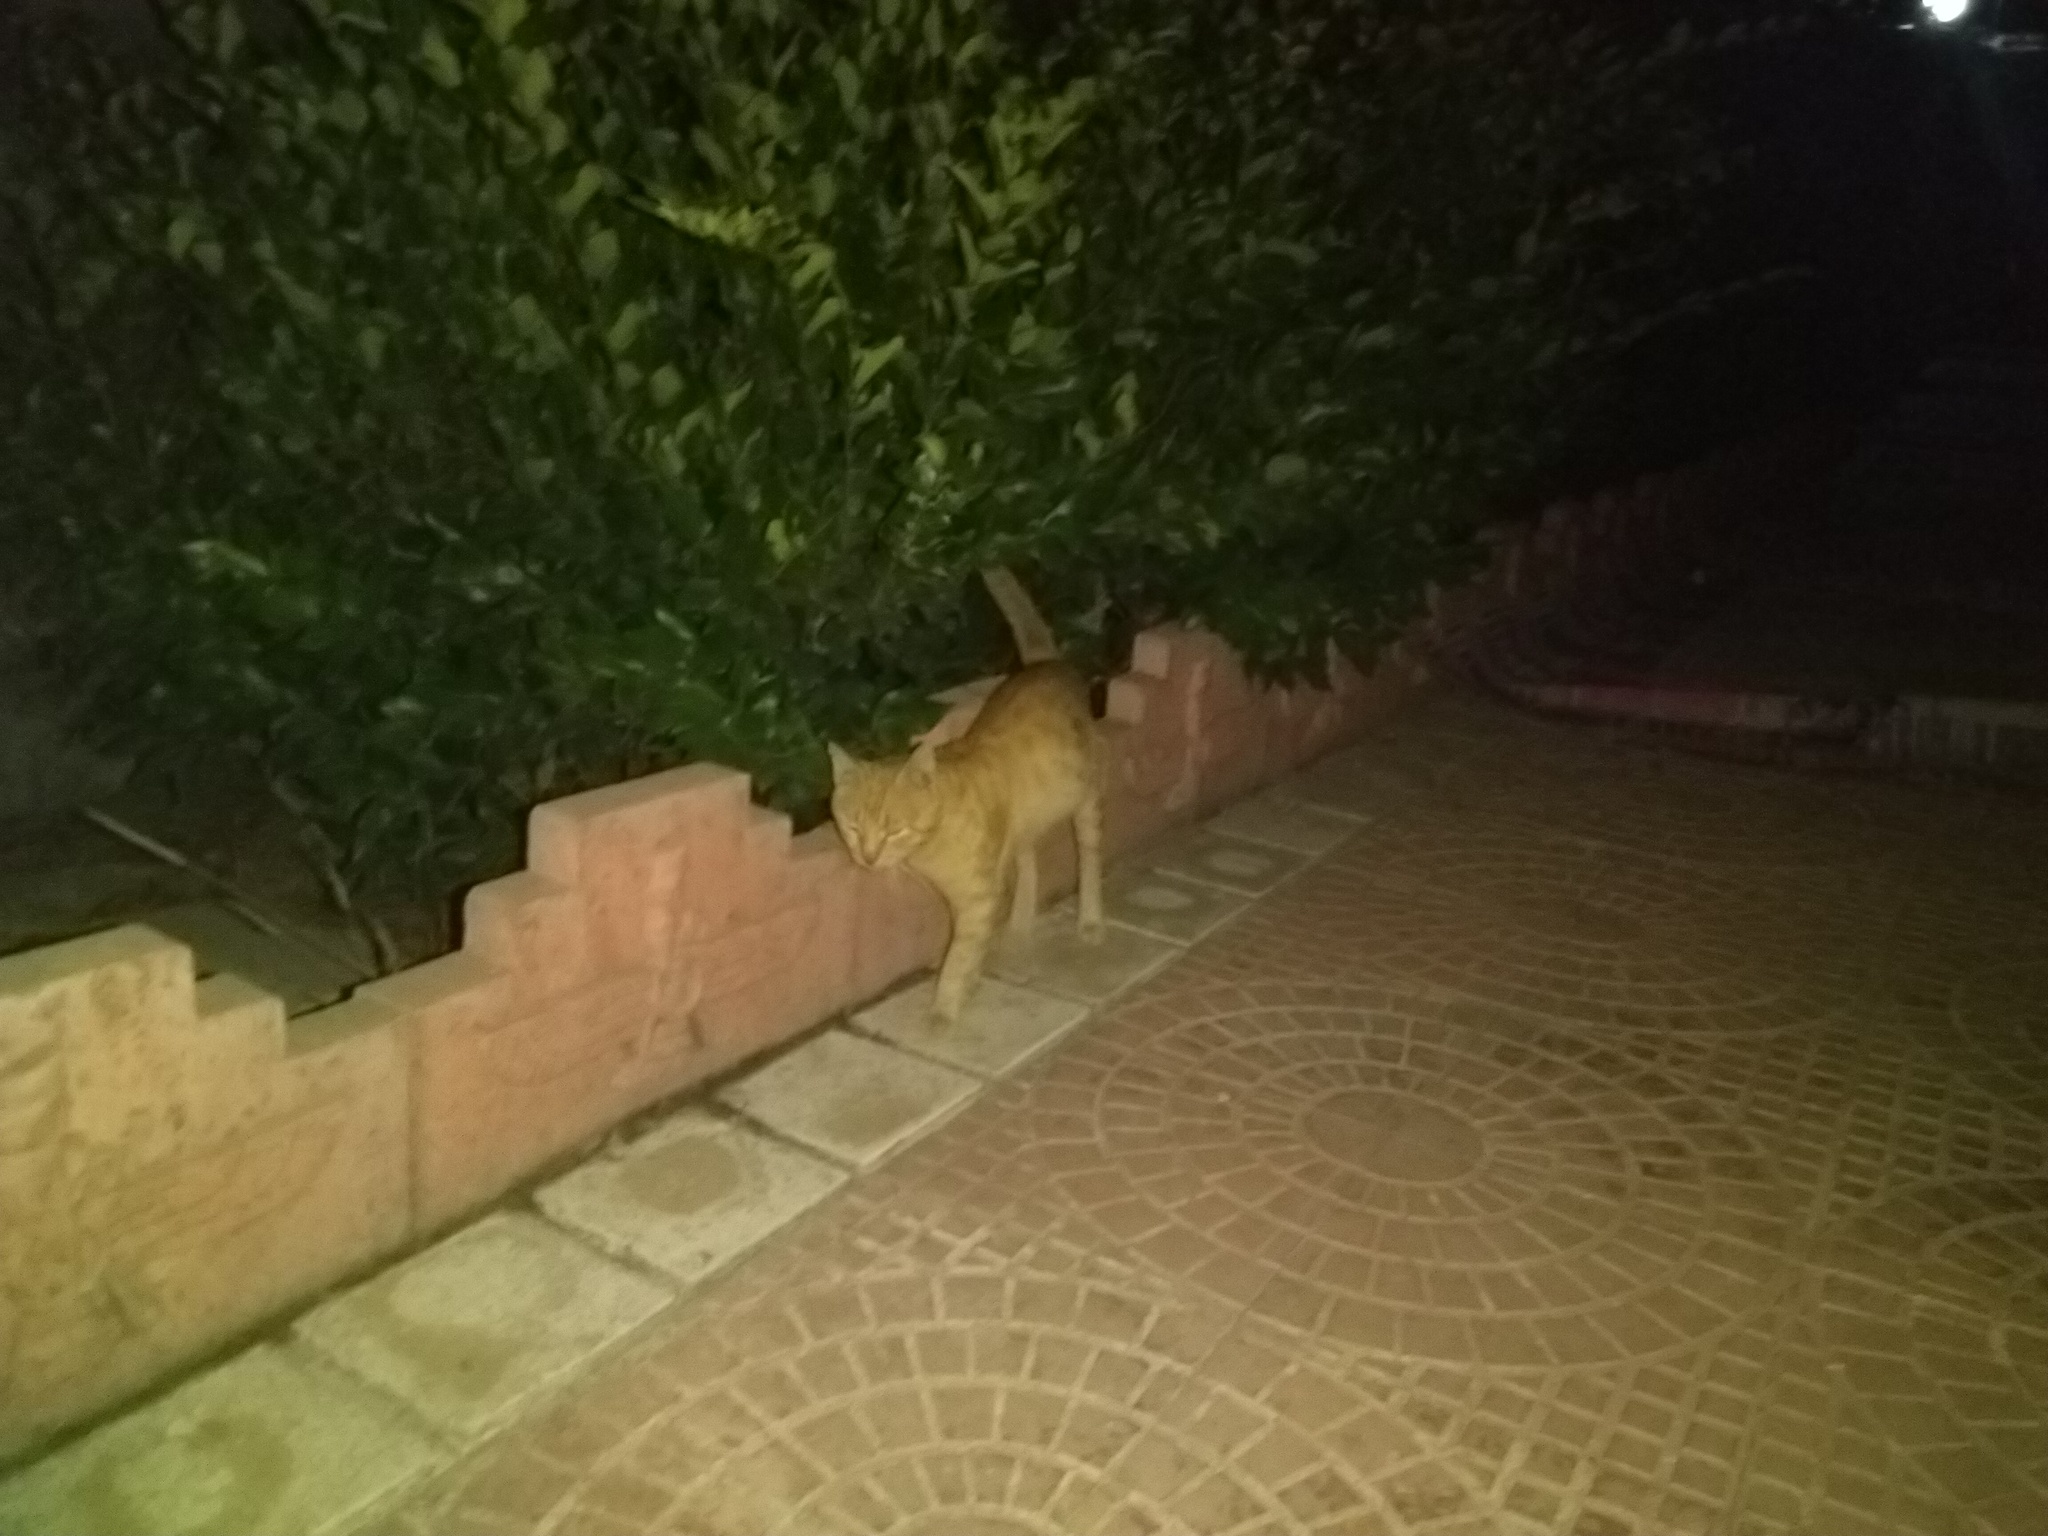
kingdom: Animalia
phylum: Chordata
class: Mammalia
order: Carnivora
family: Felidae
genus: Felis
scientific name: Felis catus
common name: Domestic cat
